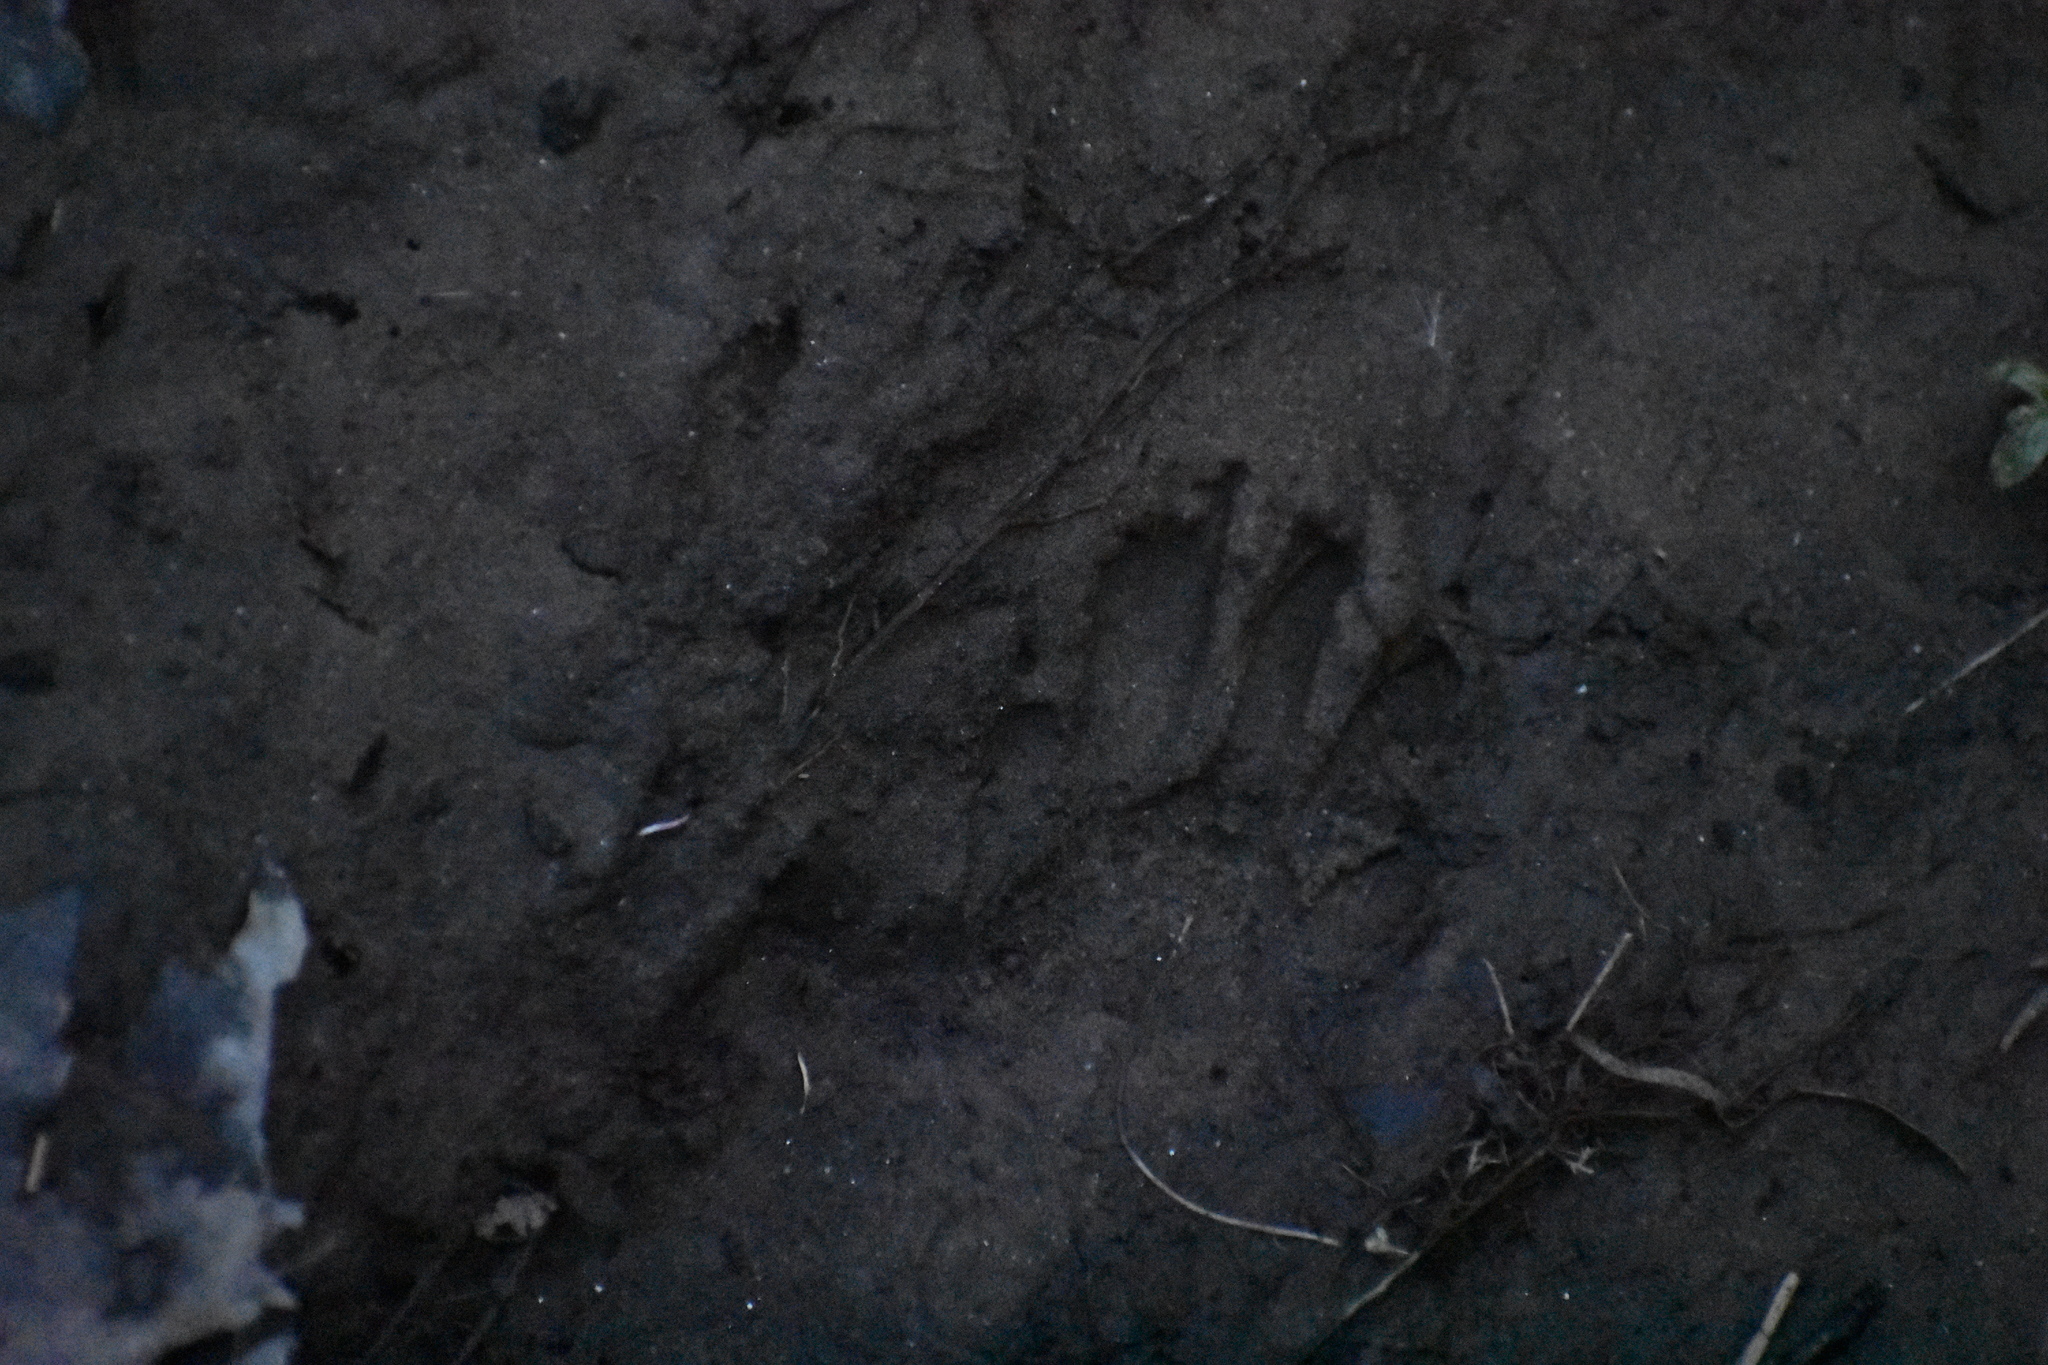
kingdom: Animalia
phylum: Chordata
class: Mammalia
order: Carnivora
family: Procyonidae
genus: Procyon
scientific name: Procyon lotor
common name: Raccoon
